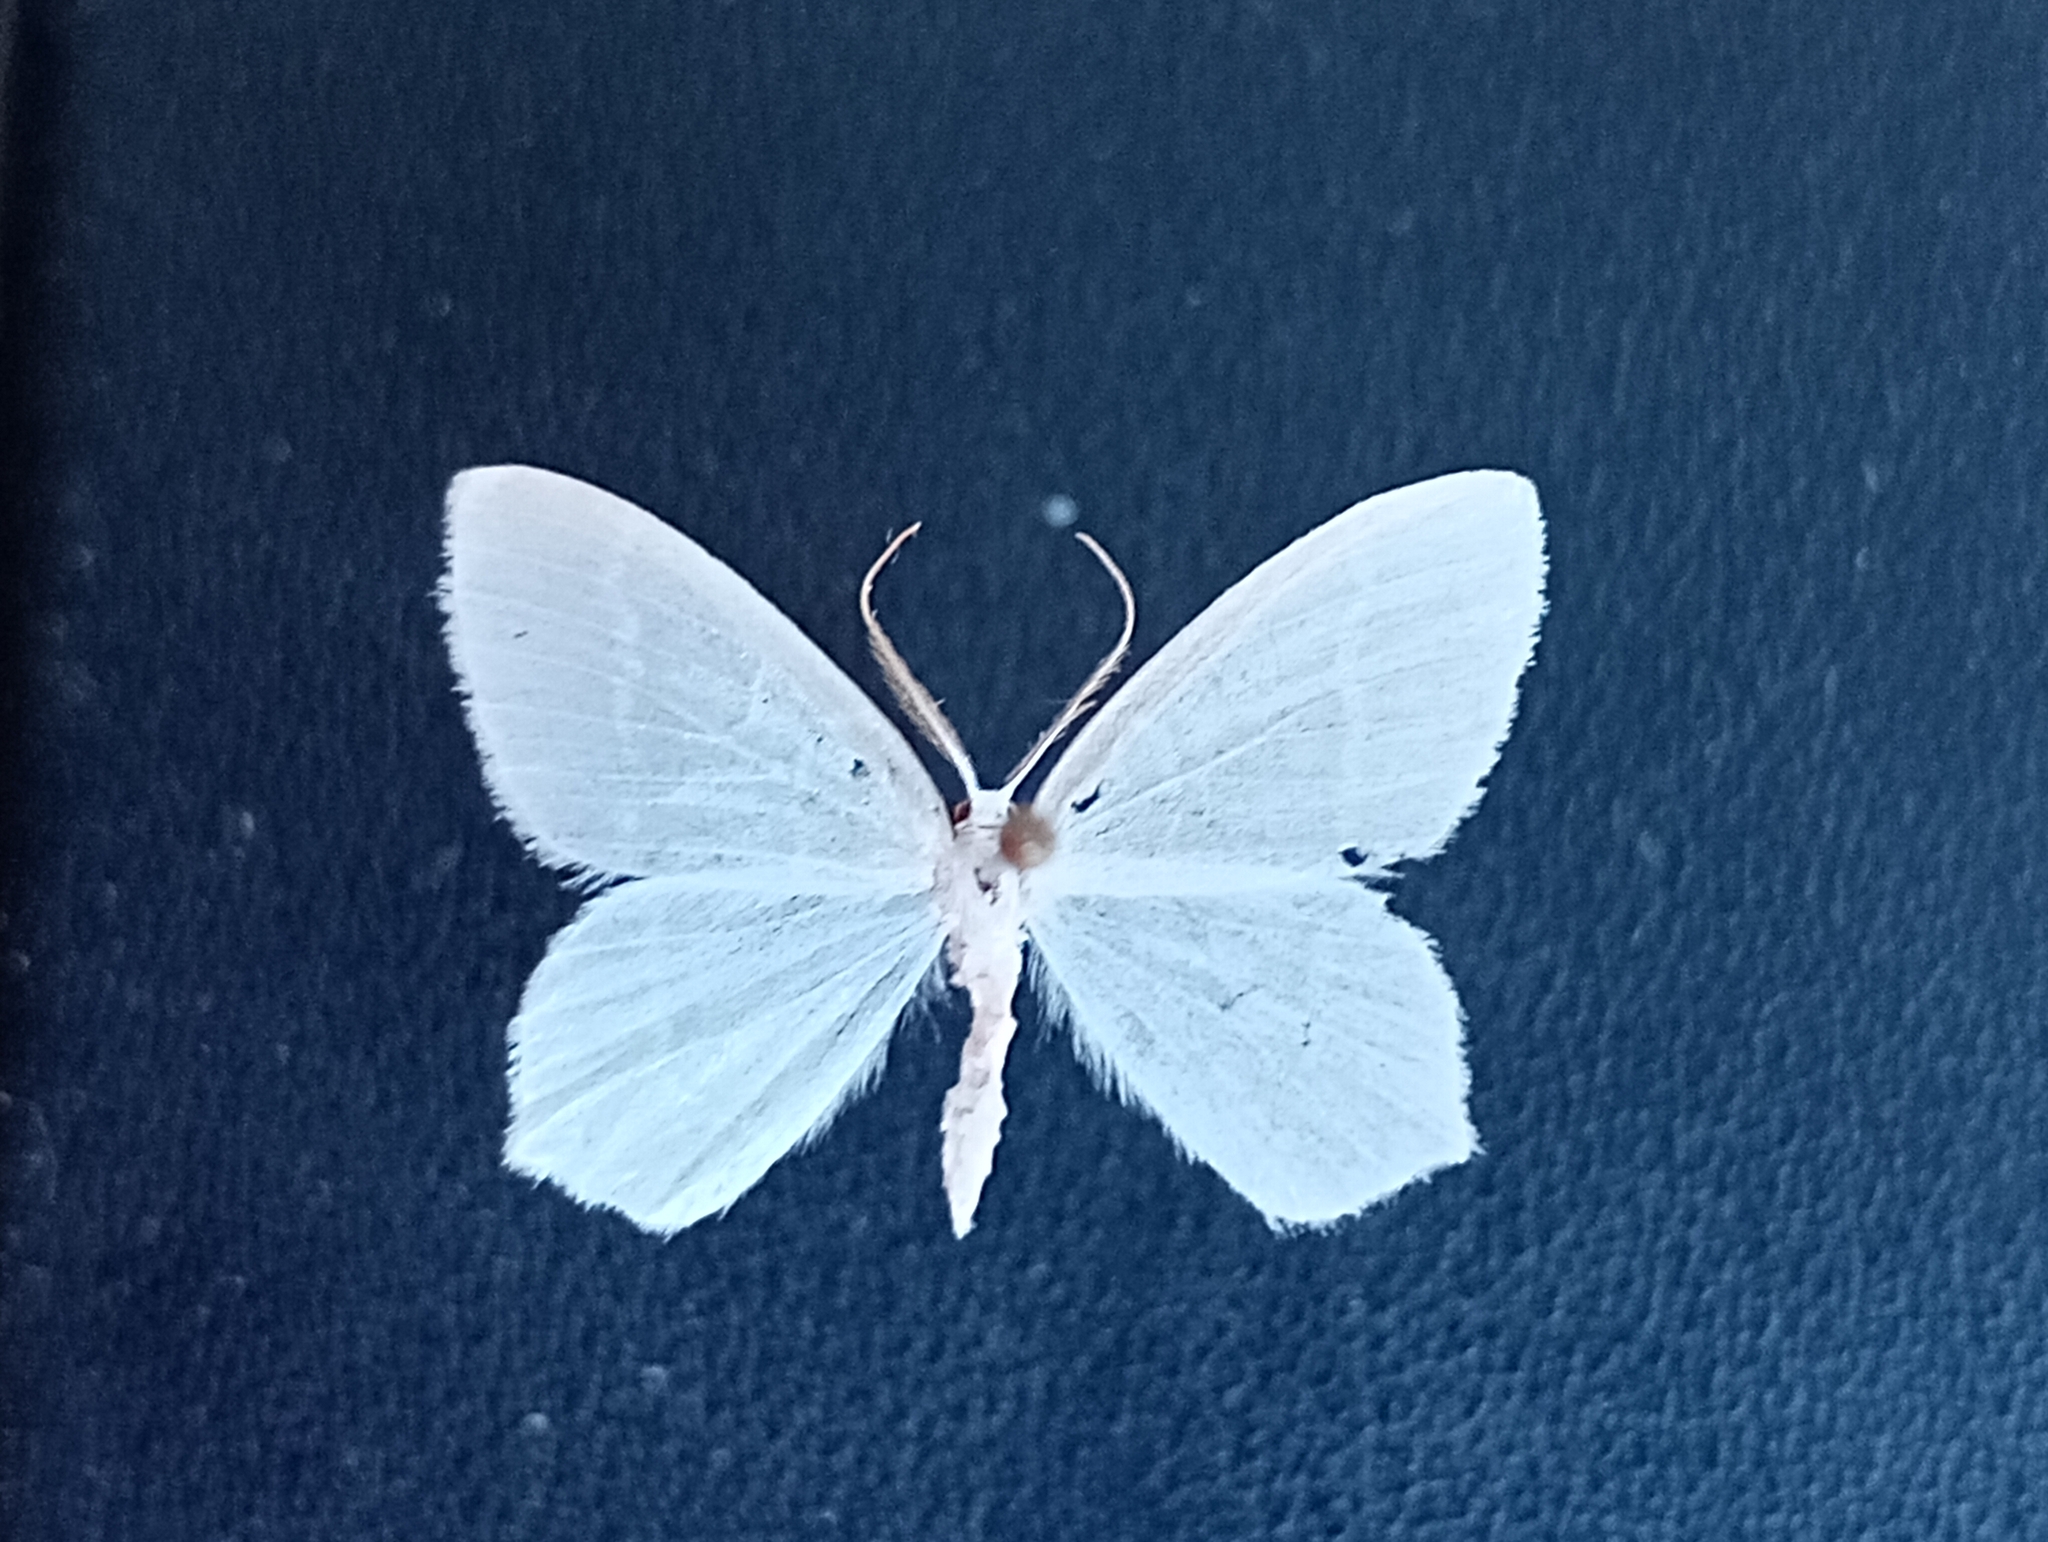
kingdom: Animalia
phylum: Arthropoda
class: Insecta
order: Lepidoptera
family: Geometridae
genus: Jodis
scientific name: Jodis lactearia
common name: Little emerald
